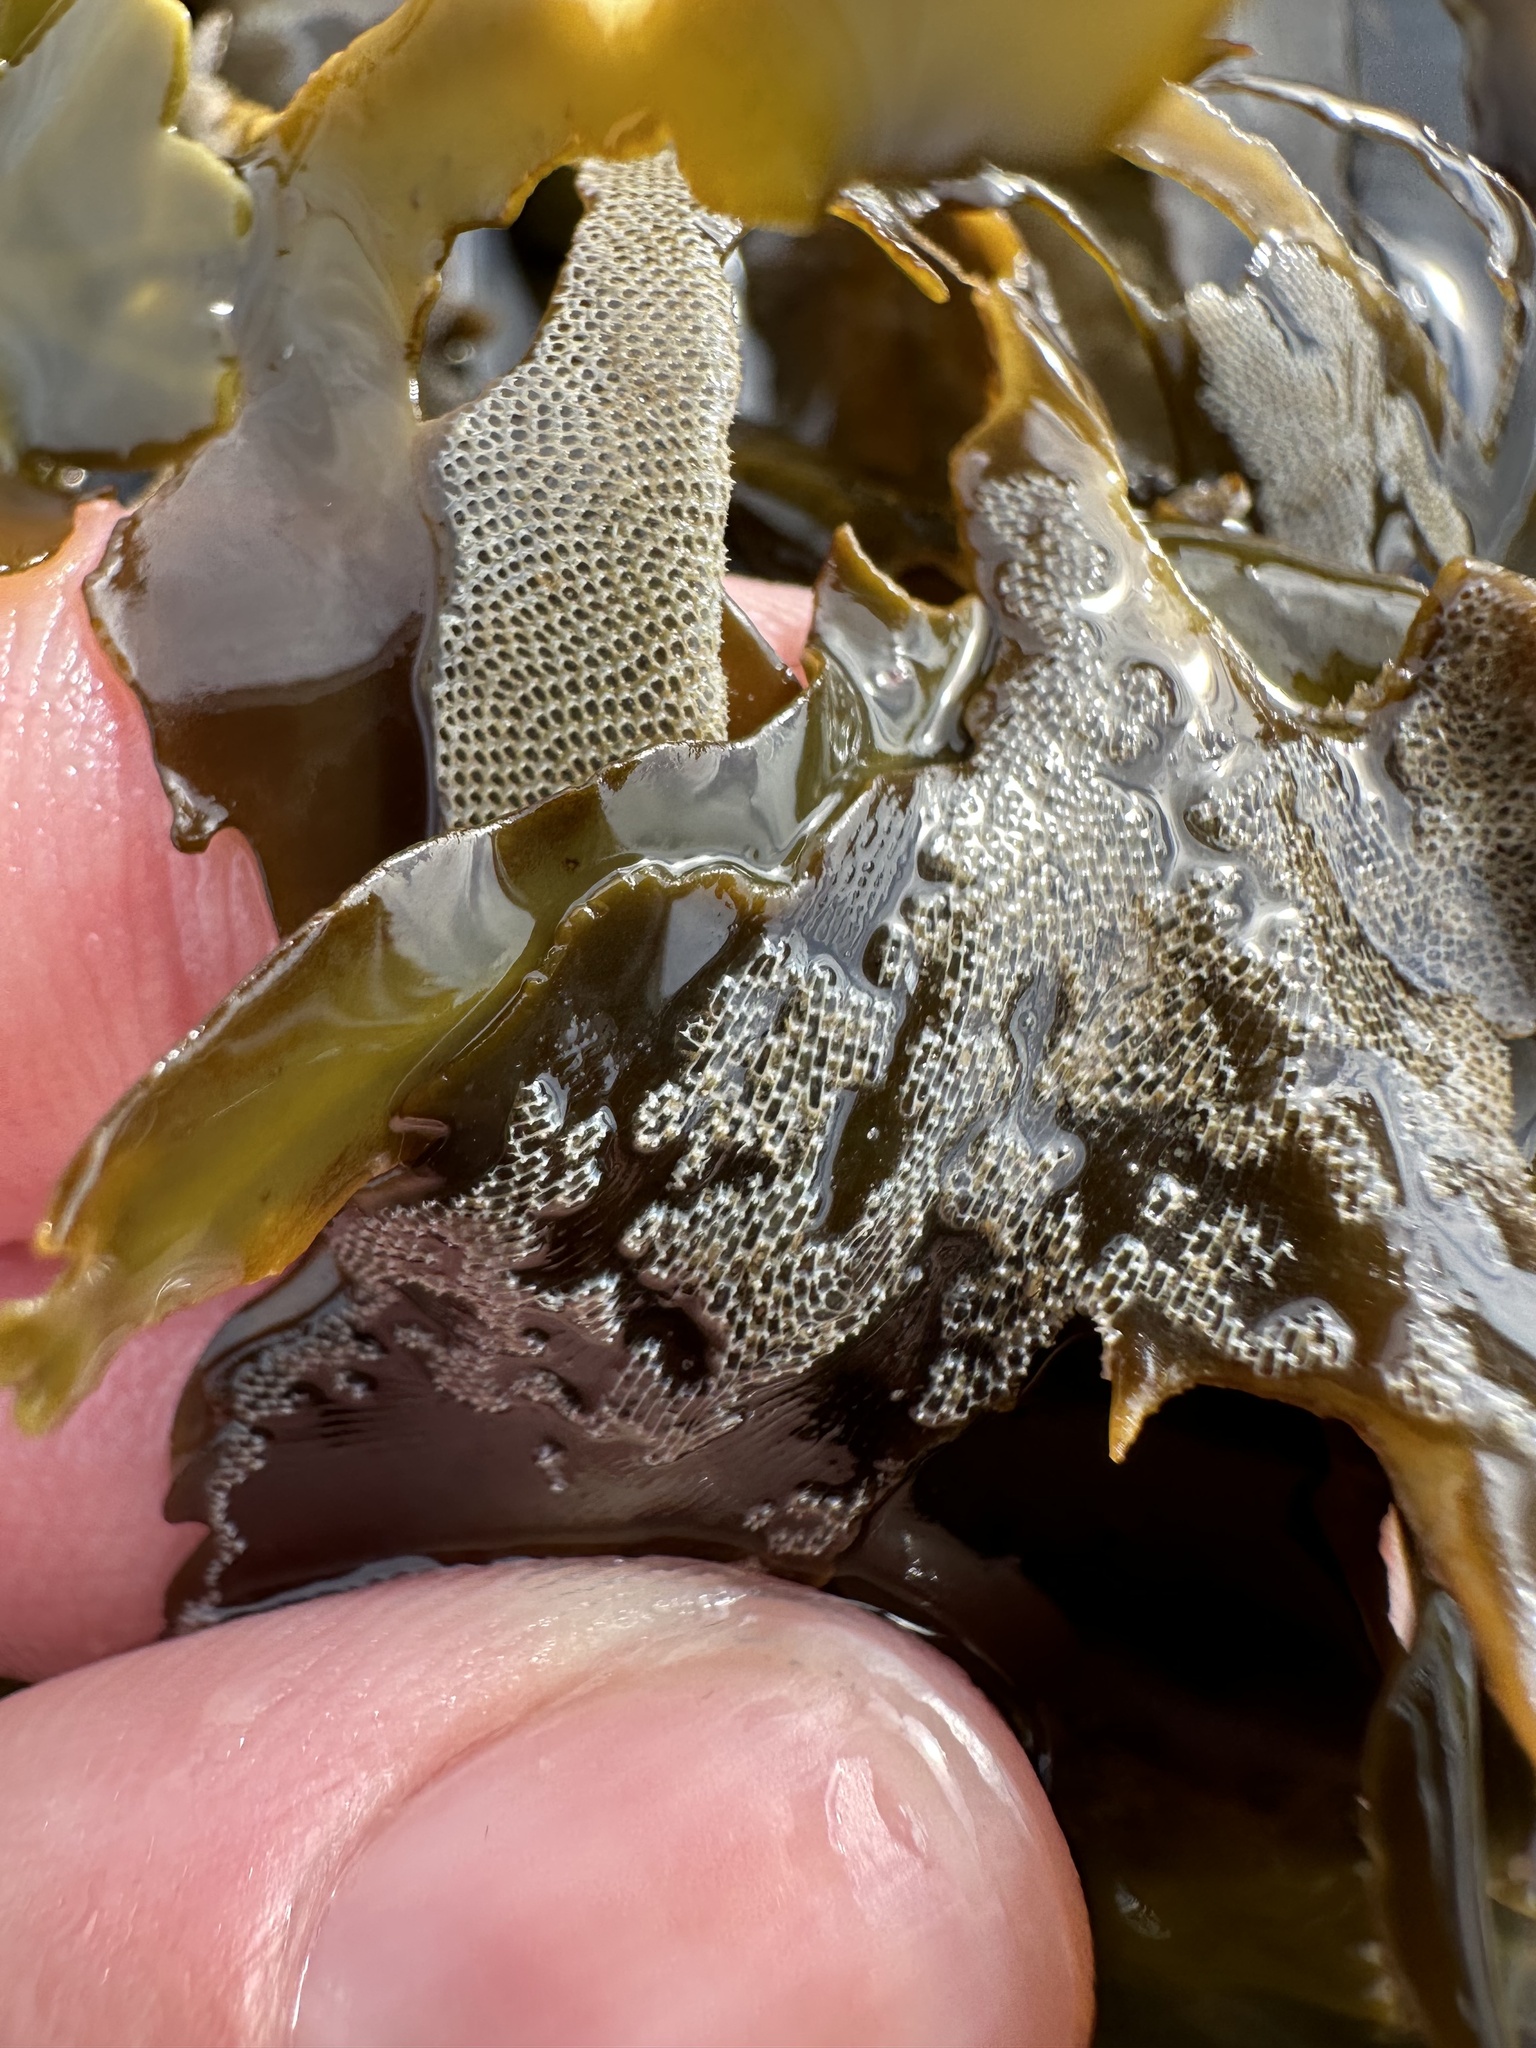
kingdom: Animalia
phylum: Bryozoa
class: Gymnolaemata
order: Cheilostomatida
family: Membraniporidae
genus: Membranipora
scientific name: Membranipora membranacea
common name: Sea mat
